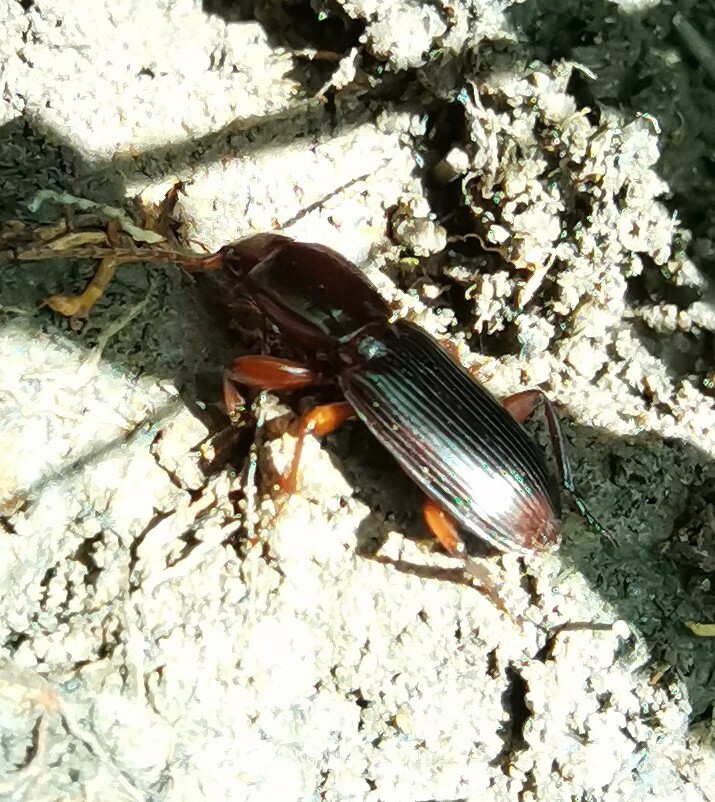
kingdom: Animalia
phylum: Arthropoda
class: Insecta
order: Coleoptera
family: Carabidae
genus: Stenomorphus
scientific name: Stenomorphus californicus
